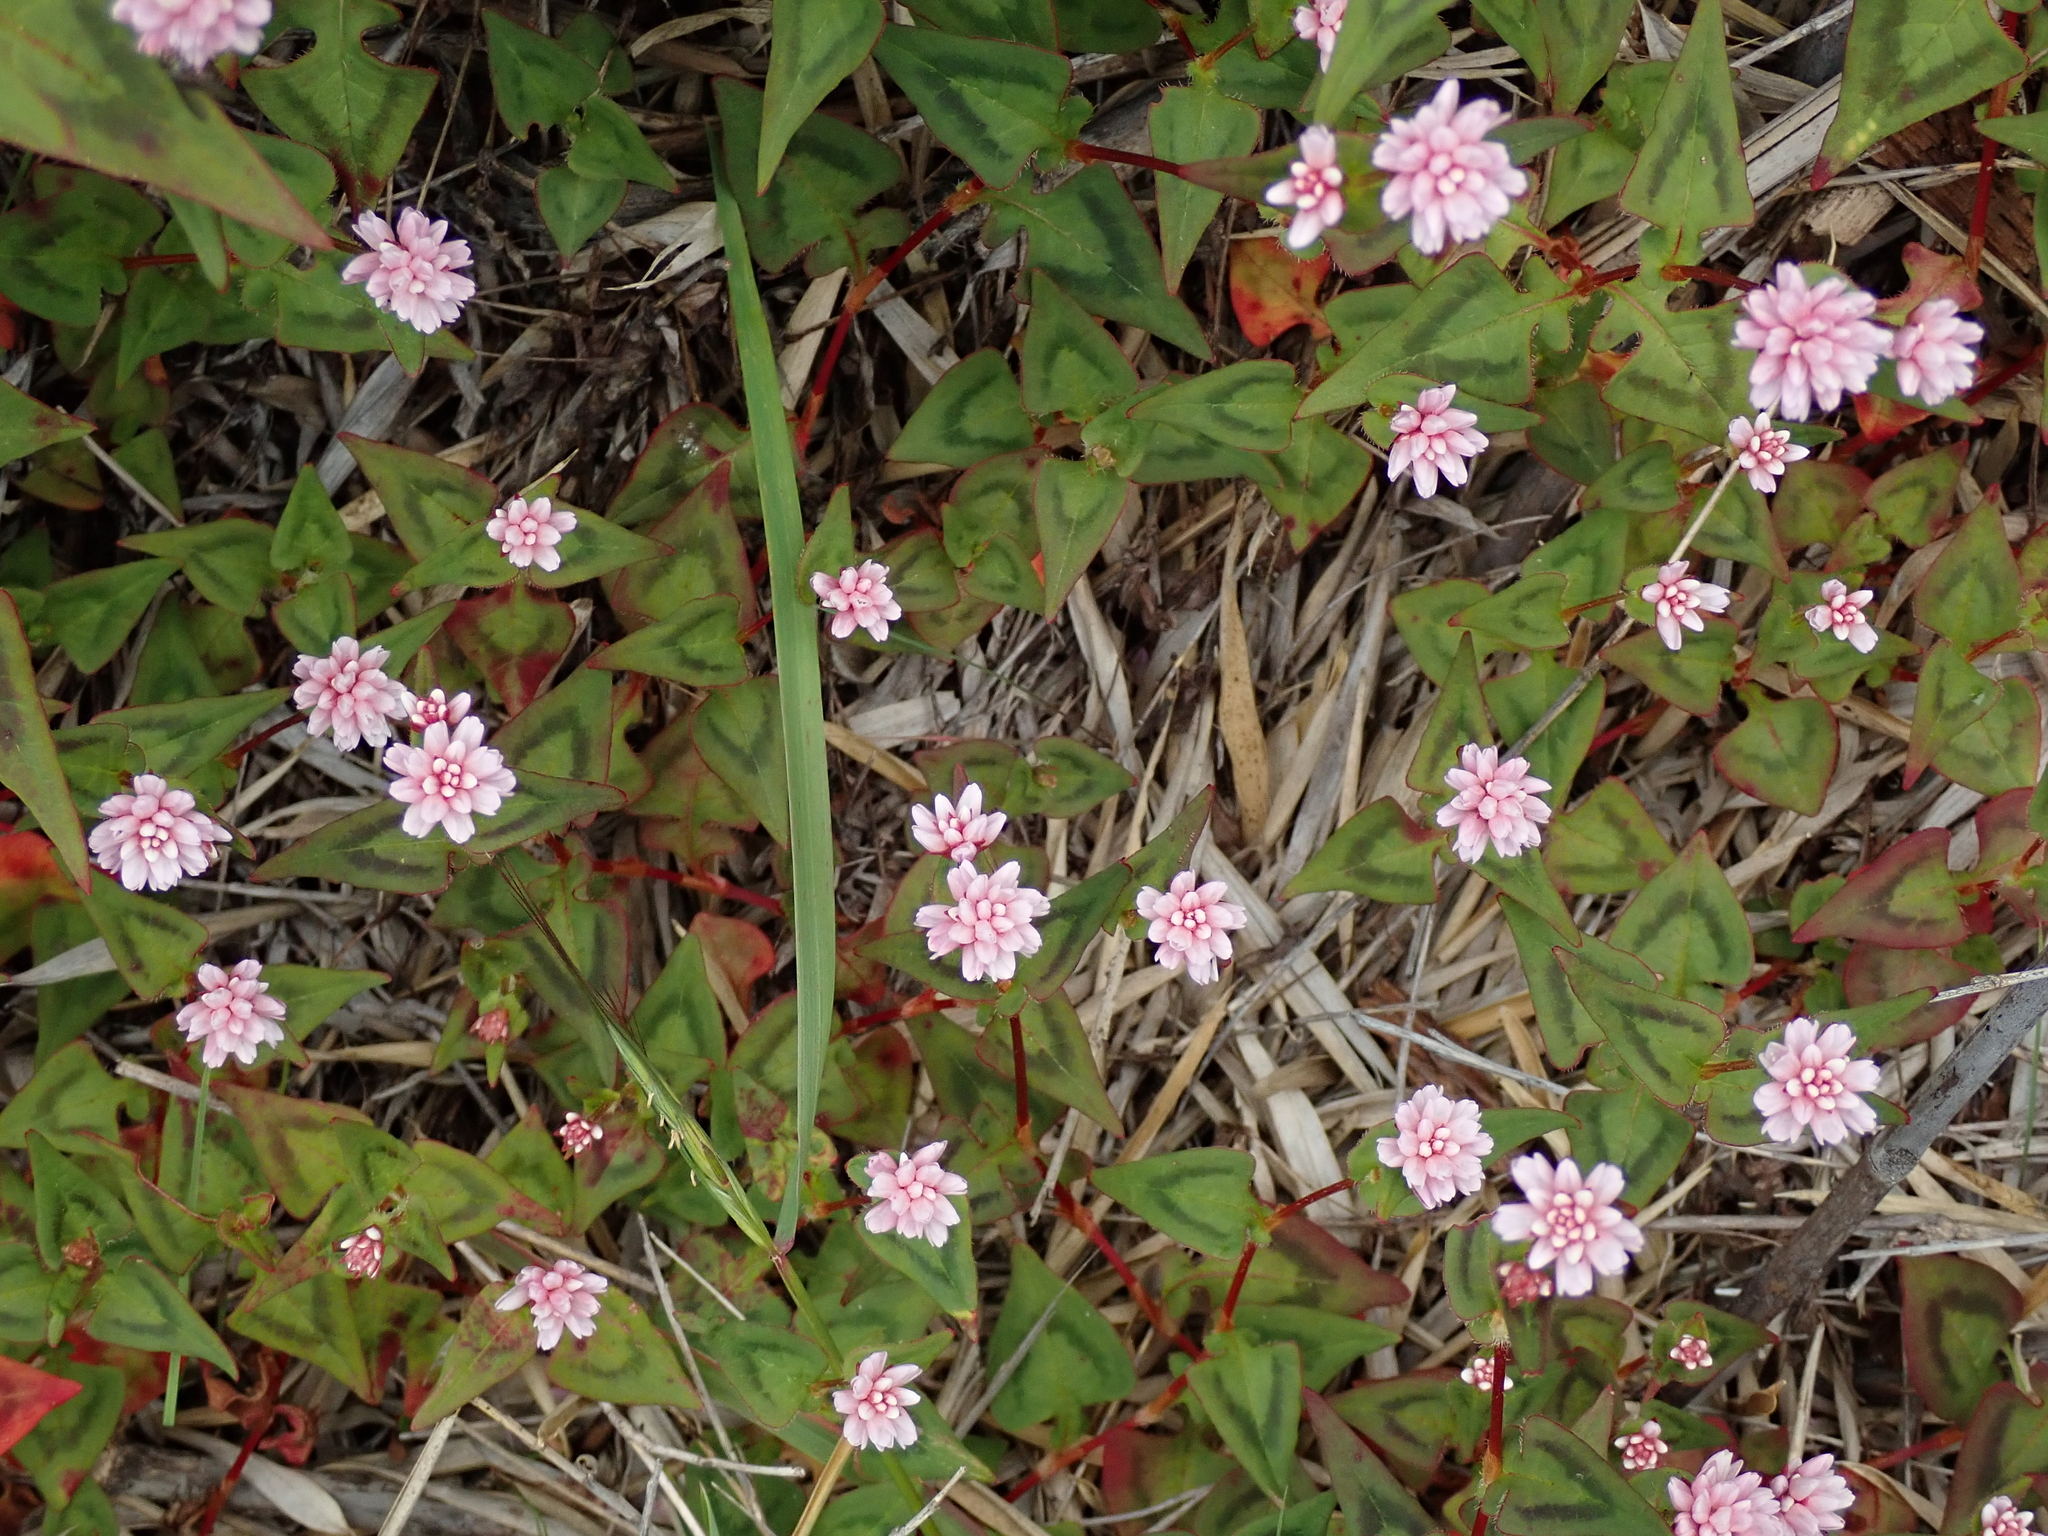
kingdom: Plantae
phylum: Tracheophyta
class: Magnoliopsida
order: Caryophyllales
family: Polygonaceae
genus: Persicaria
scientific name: Persicaria runcinata
